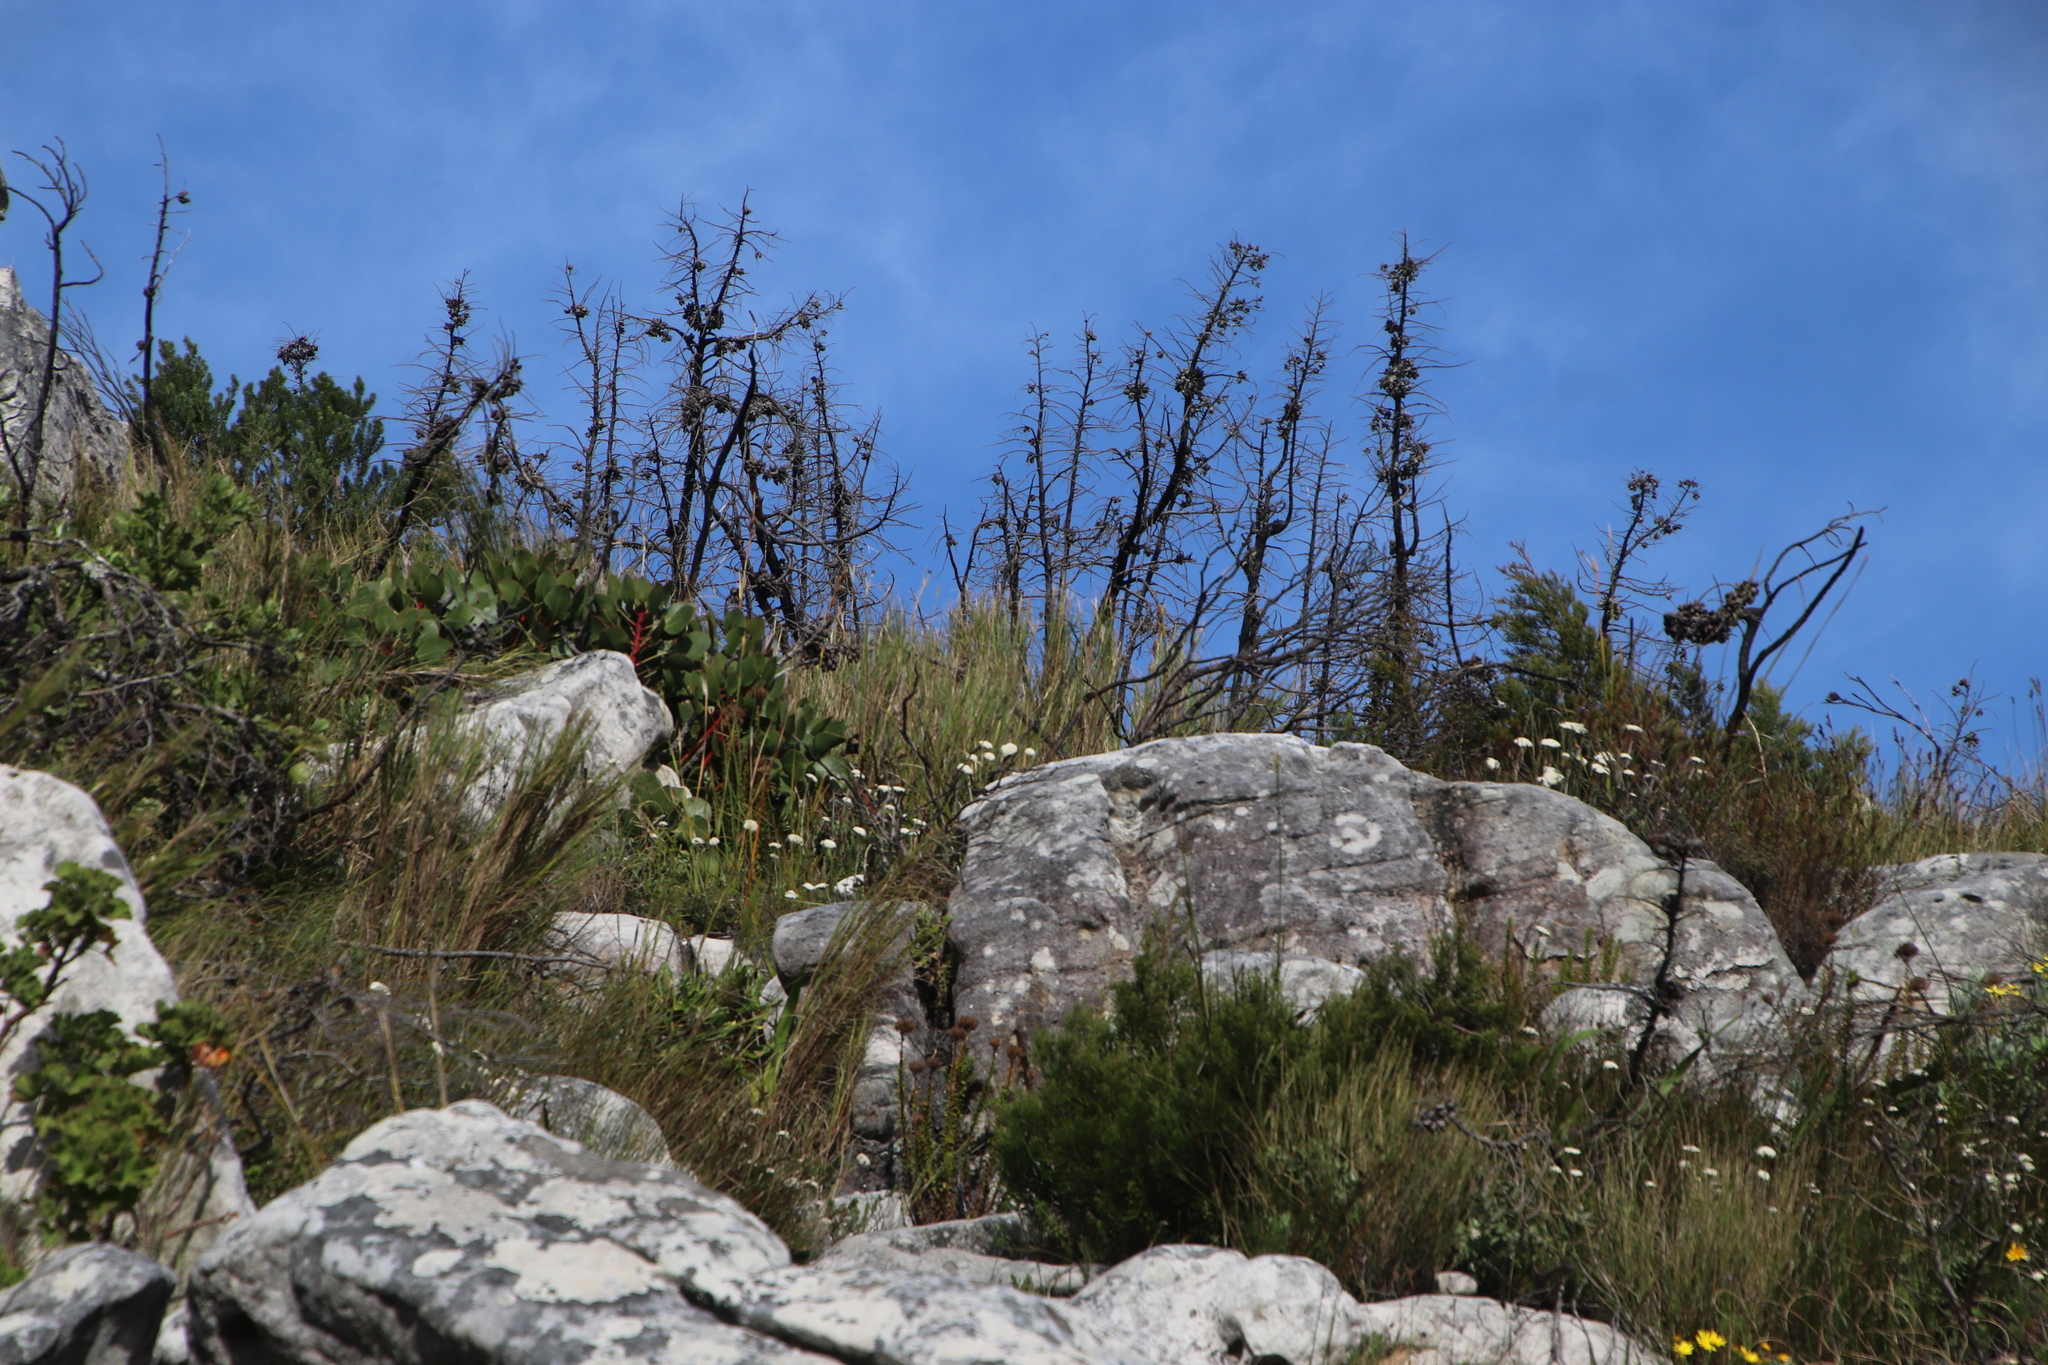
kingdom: Plantae
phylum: Tracheophyta
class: Pinopsida
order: Pinales
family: Cupressaceae
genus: Widdringtonia
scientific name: Widdringtonia nodiflora
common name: Cape cypress
